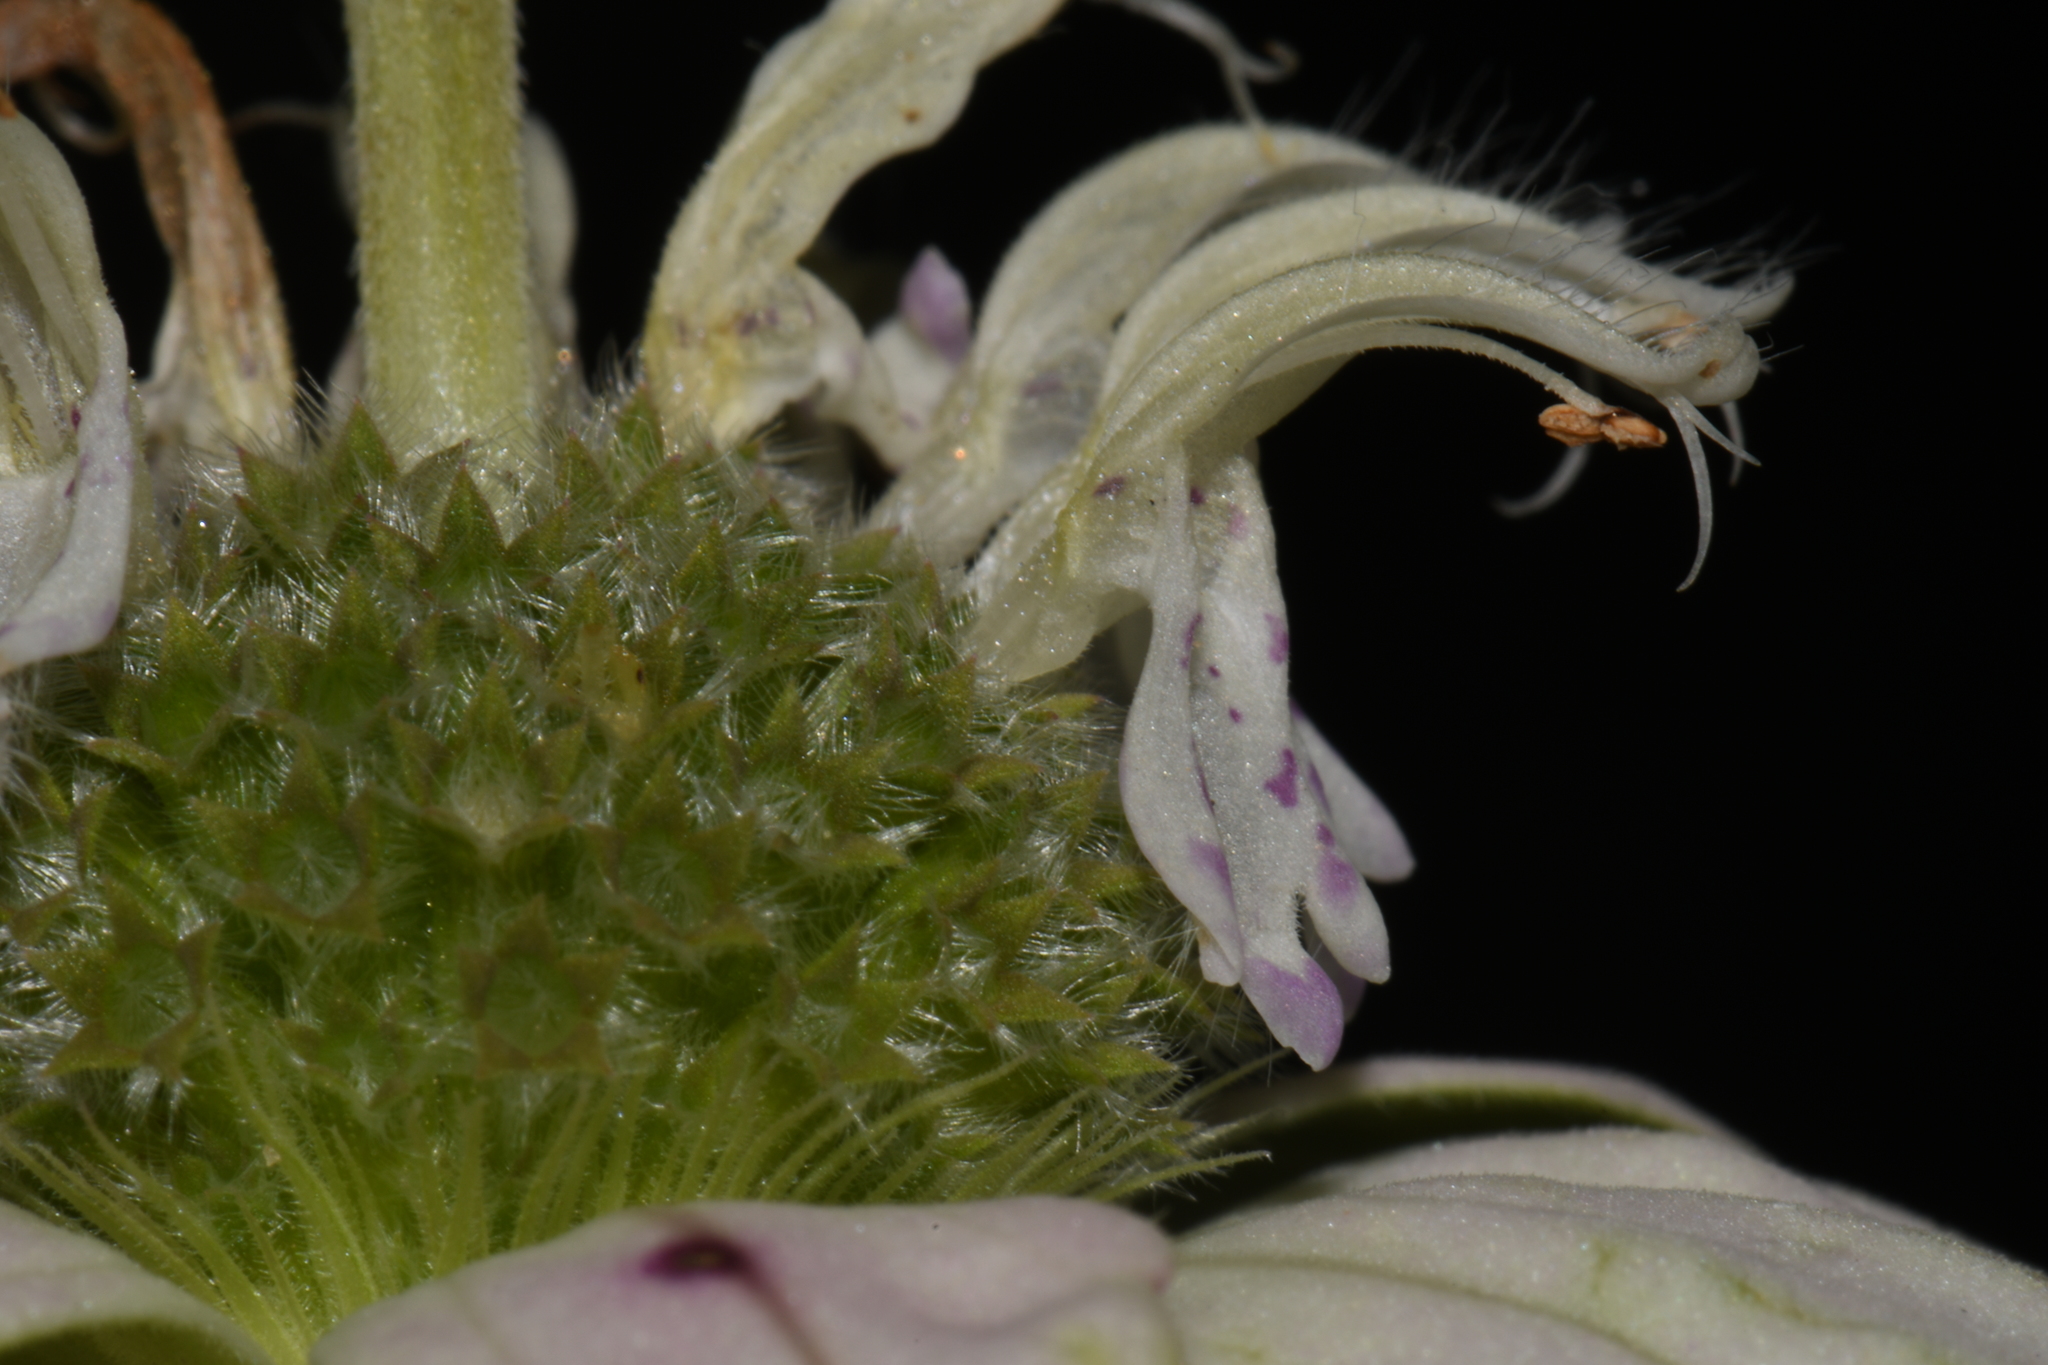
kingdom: Plantae
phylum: Tracheophyta
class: Magnoliopsida
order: Lamiales
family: Lamiaceae
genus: Monarda
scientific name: Monarda punctata
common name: Dotted monarda
